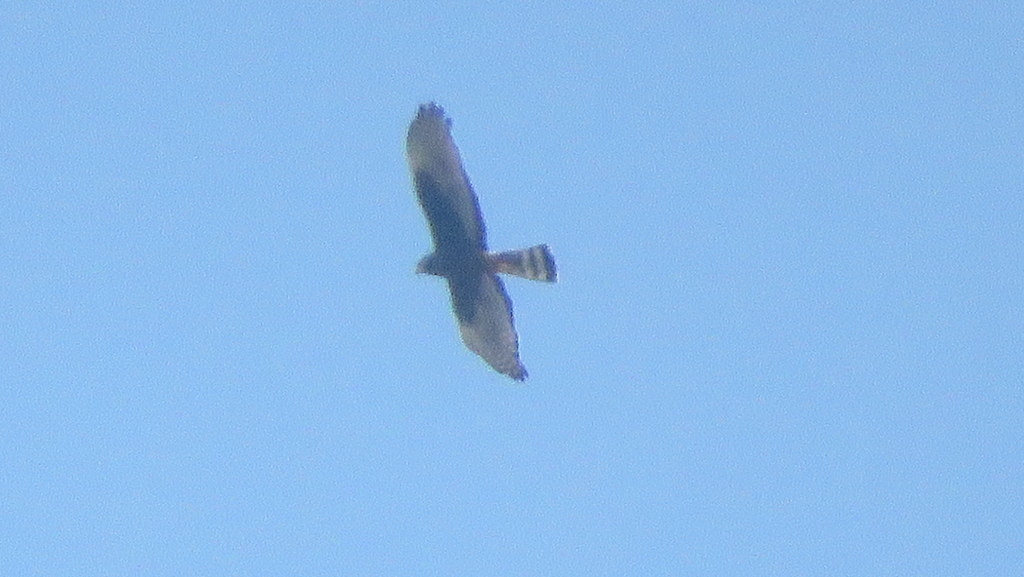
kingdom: Animalia
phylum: Chordata
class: Aves
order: Accipitriformes
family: Accipitridae
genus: Circus
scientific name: Circus buffoni
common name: Long-winged harrier
